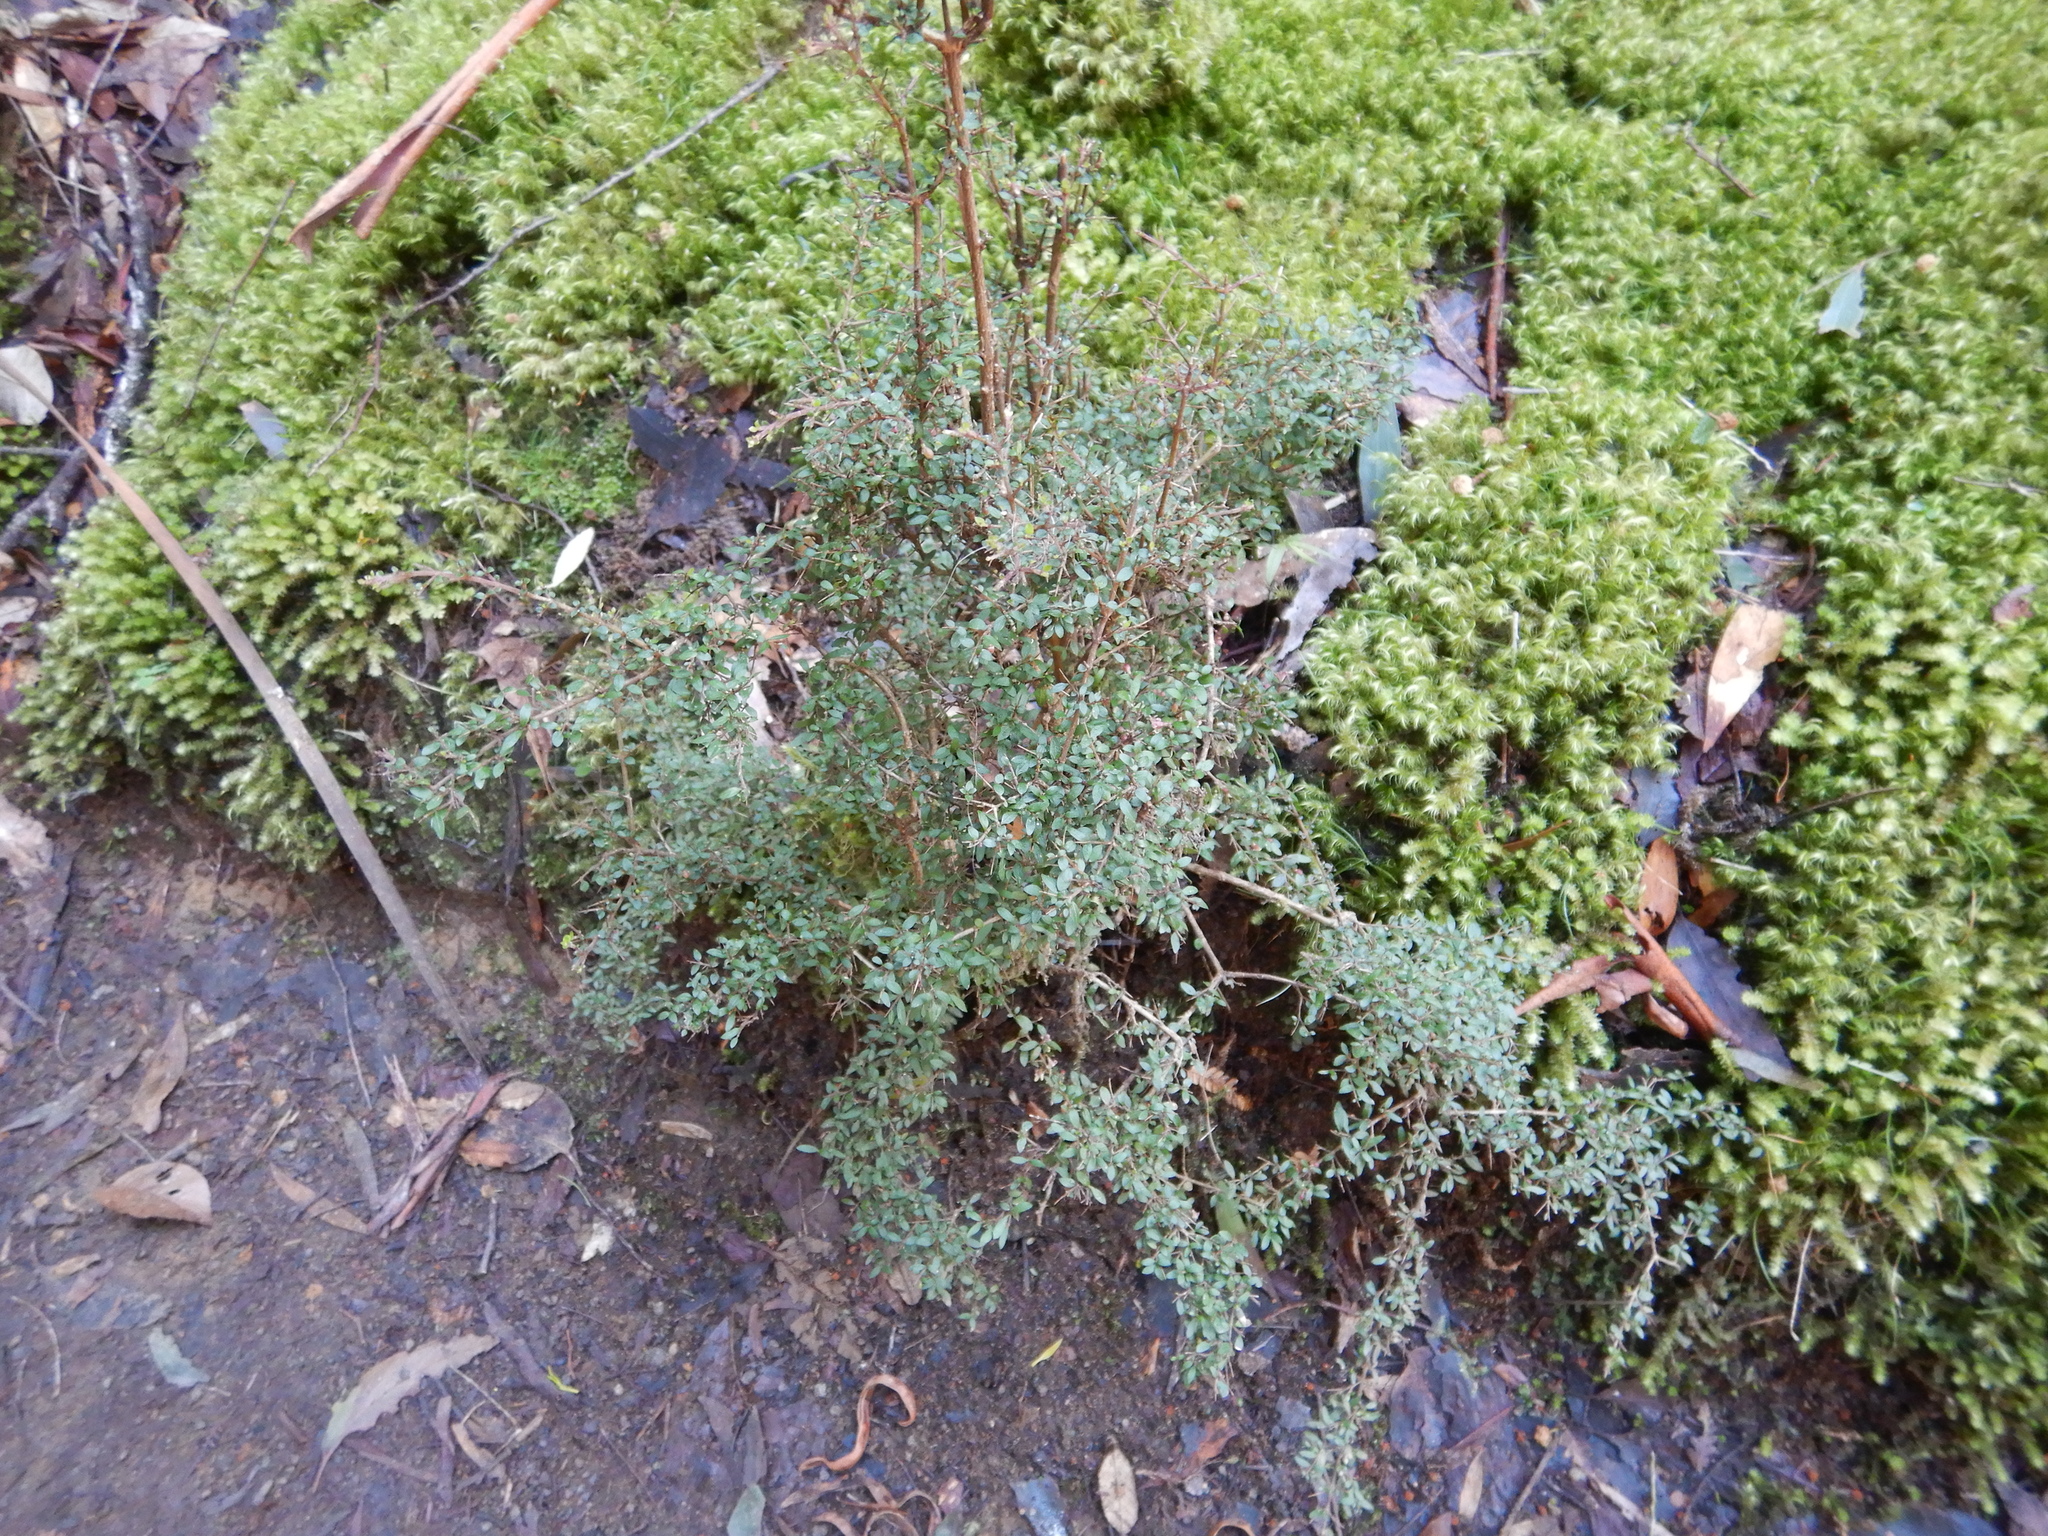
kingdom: Plantae
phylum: Tracheophyta
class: Magnoliopsida
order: Gentianales
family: Rubiaceae
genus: Coprosma
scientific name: Coprosma quadrifida
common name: Prickly currantbush
